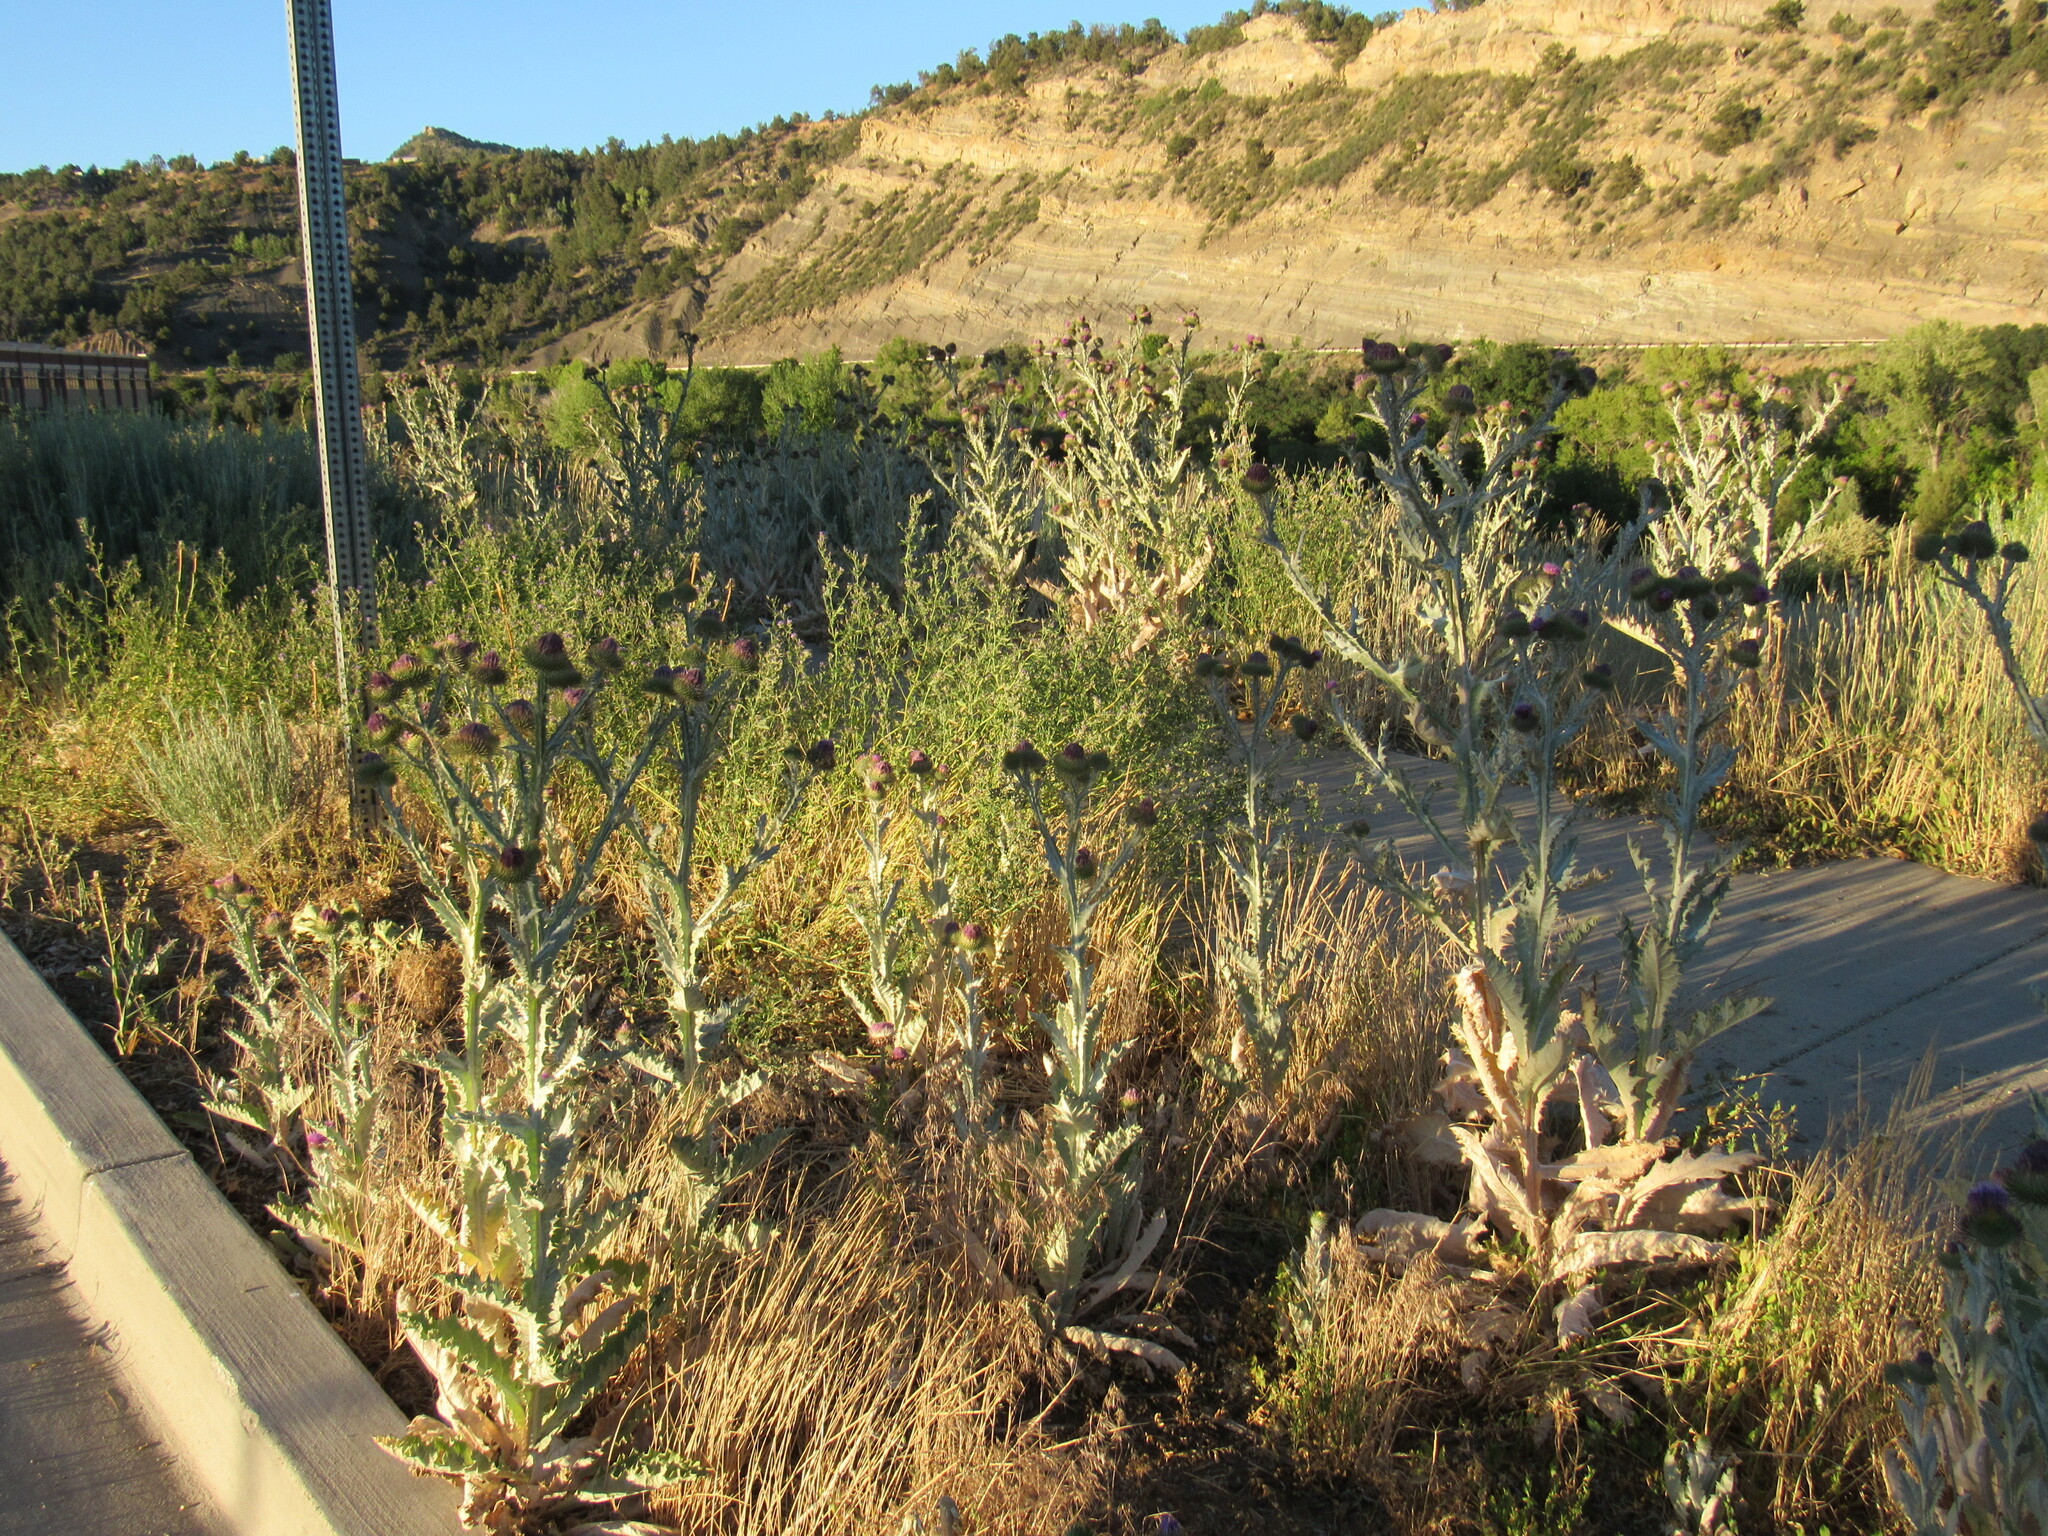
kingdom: Plantae
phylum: Tracheophyta
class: Magnoliopsida
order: Asterales
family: Asteraceae
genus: Onopordum
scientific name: Onopordum acanthium
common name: Scotch thistle
